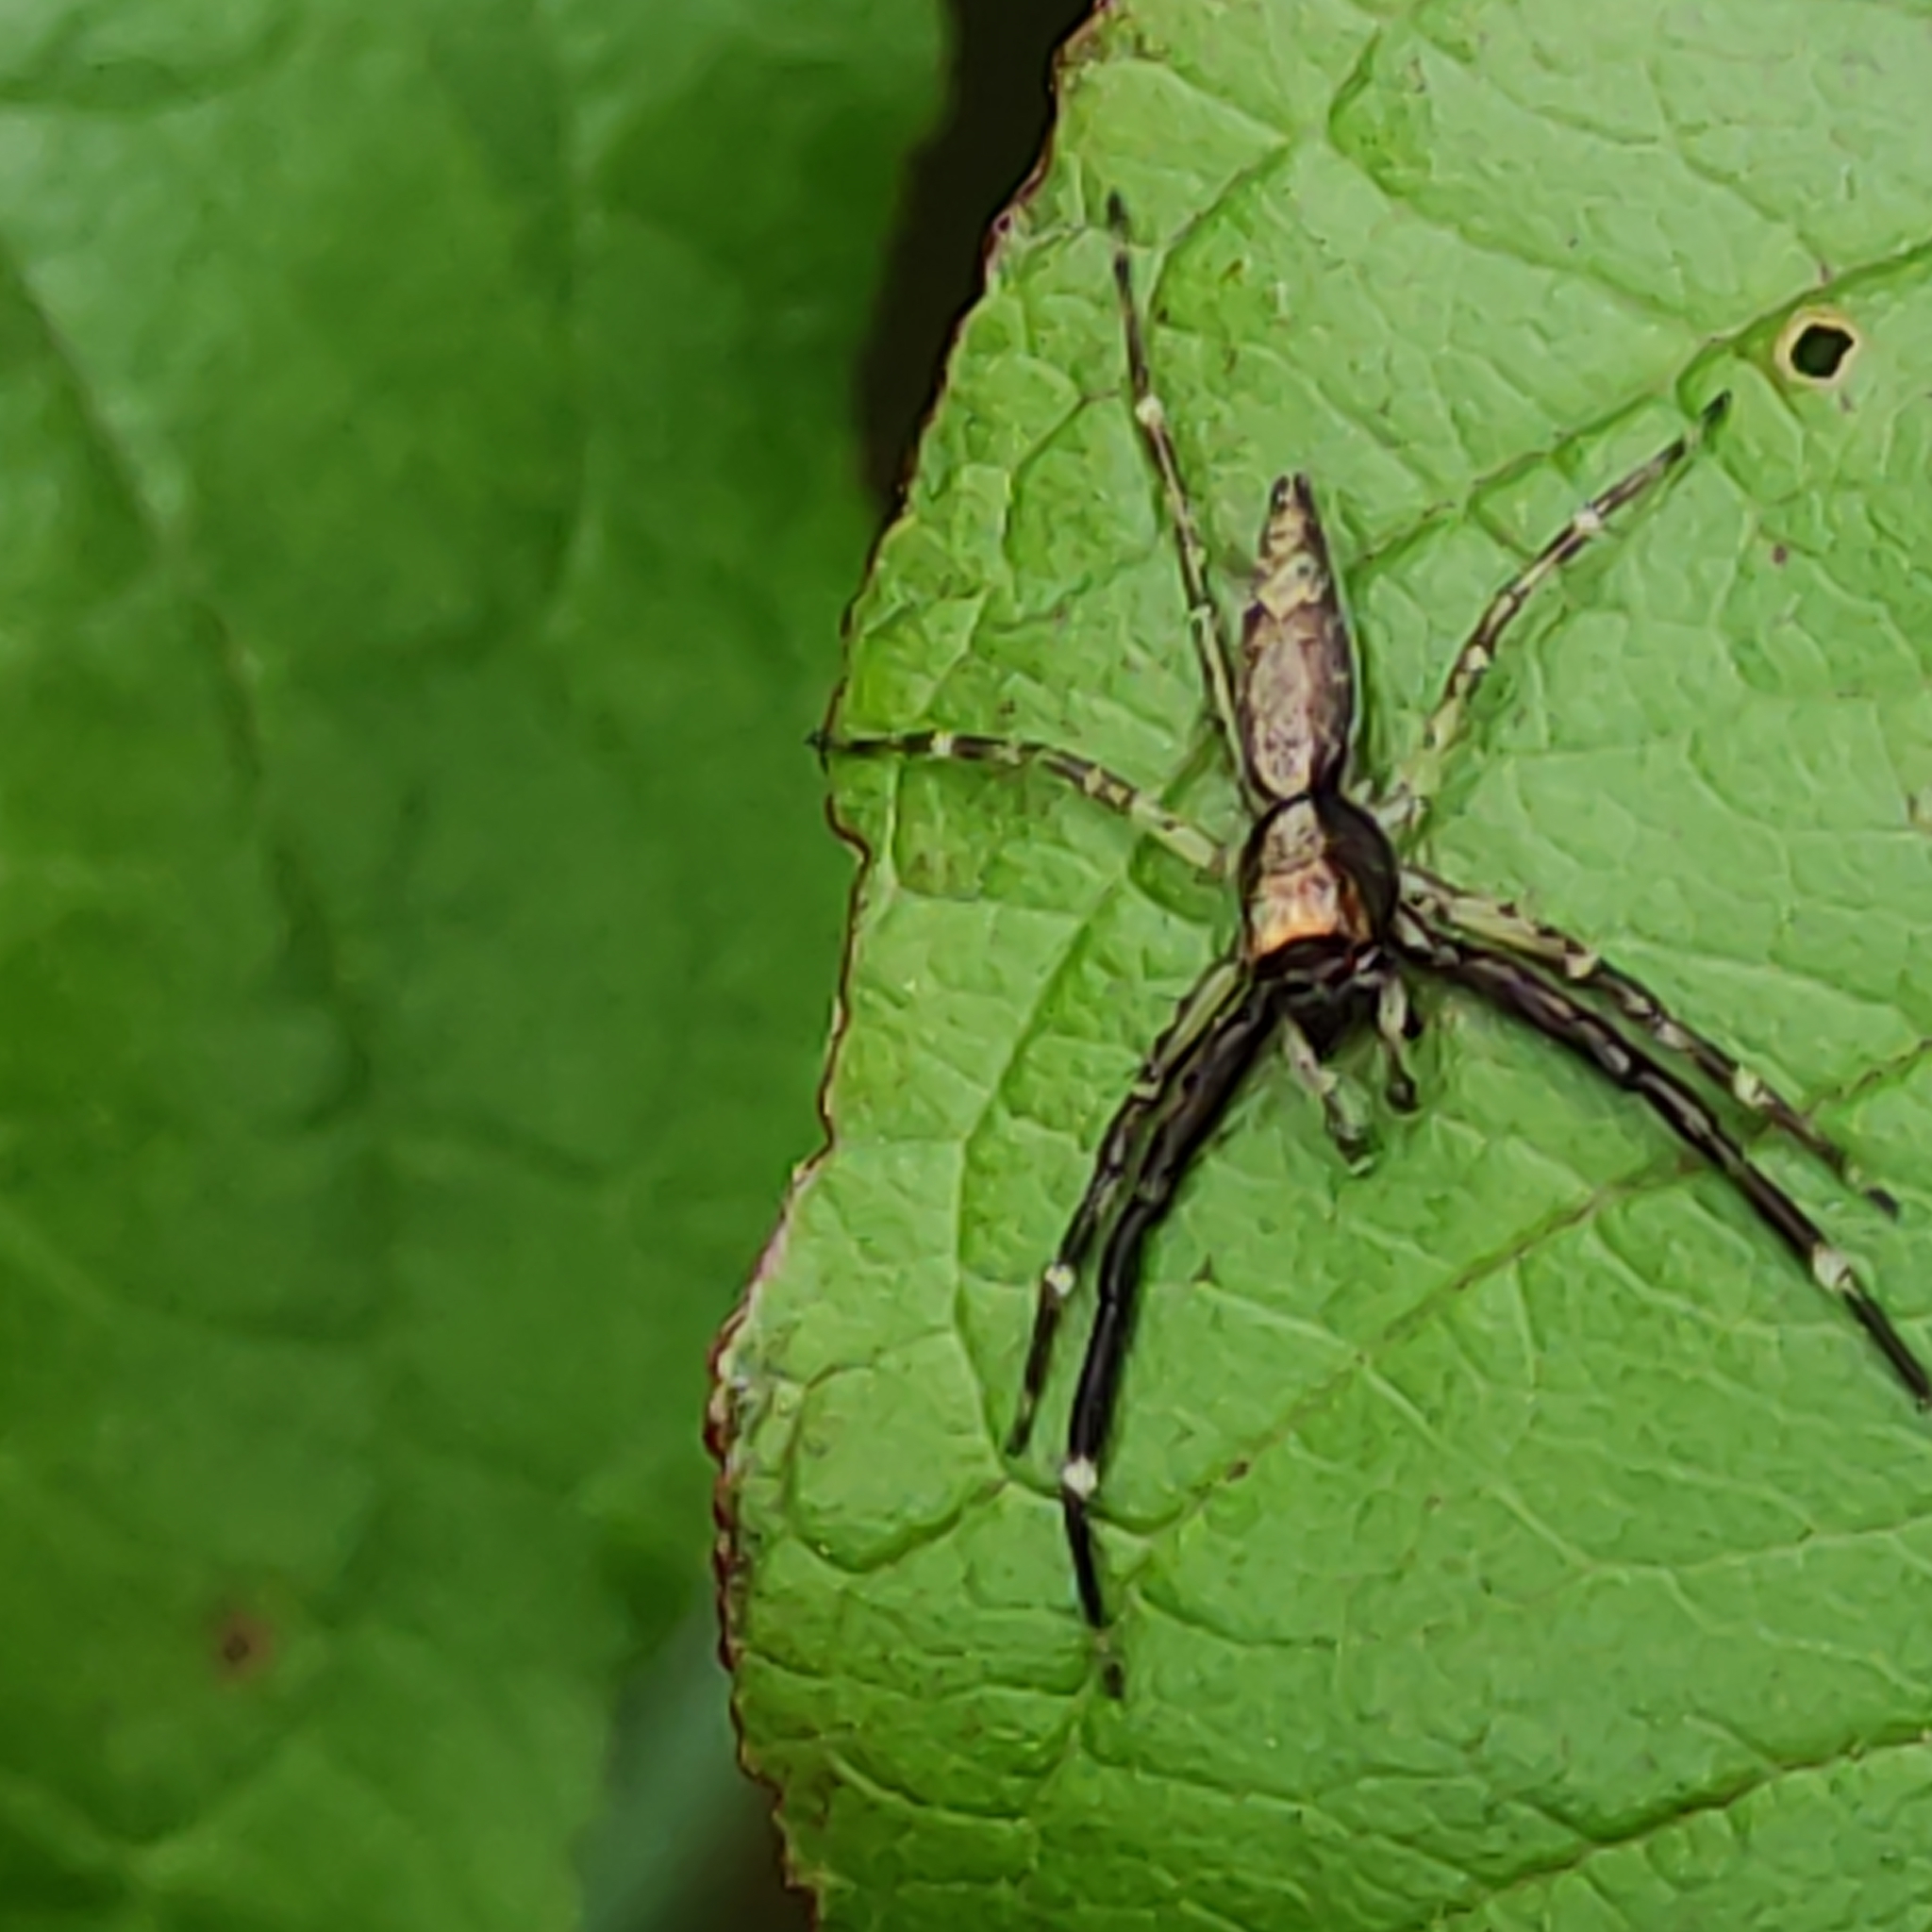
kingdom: Animalia
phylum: Arthropoda
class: Arachnida
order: Araneae
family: Salticidae
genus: Helpis
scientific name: Helpis minitabunda
